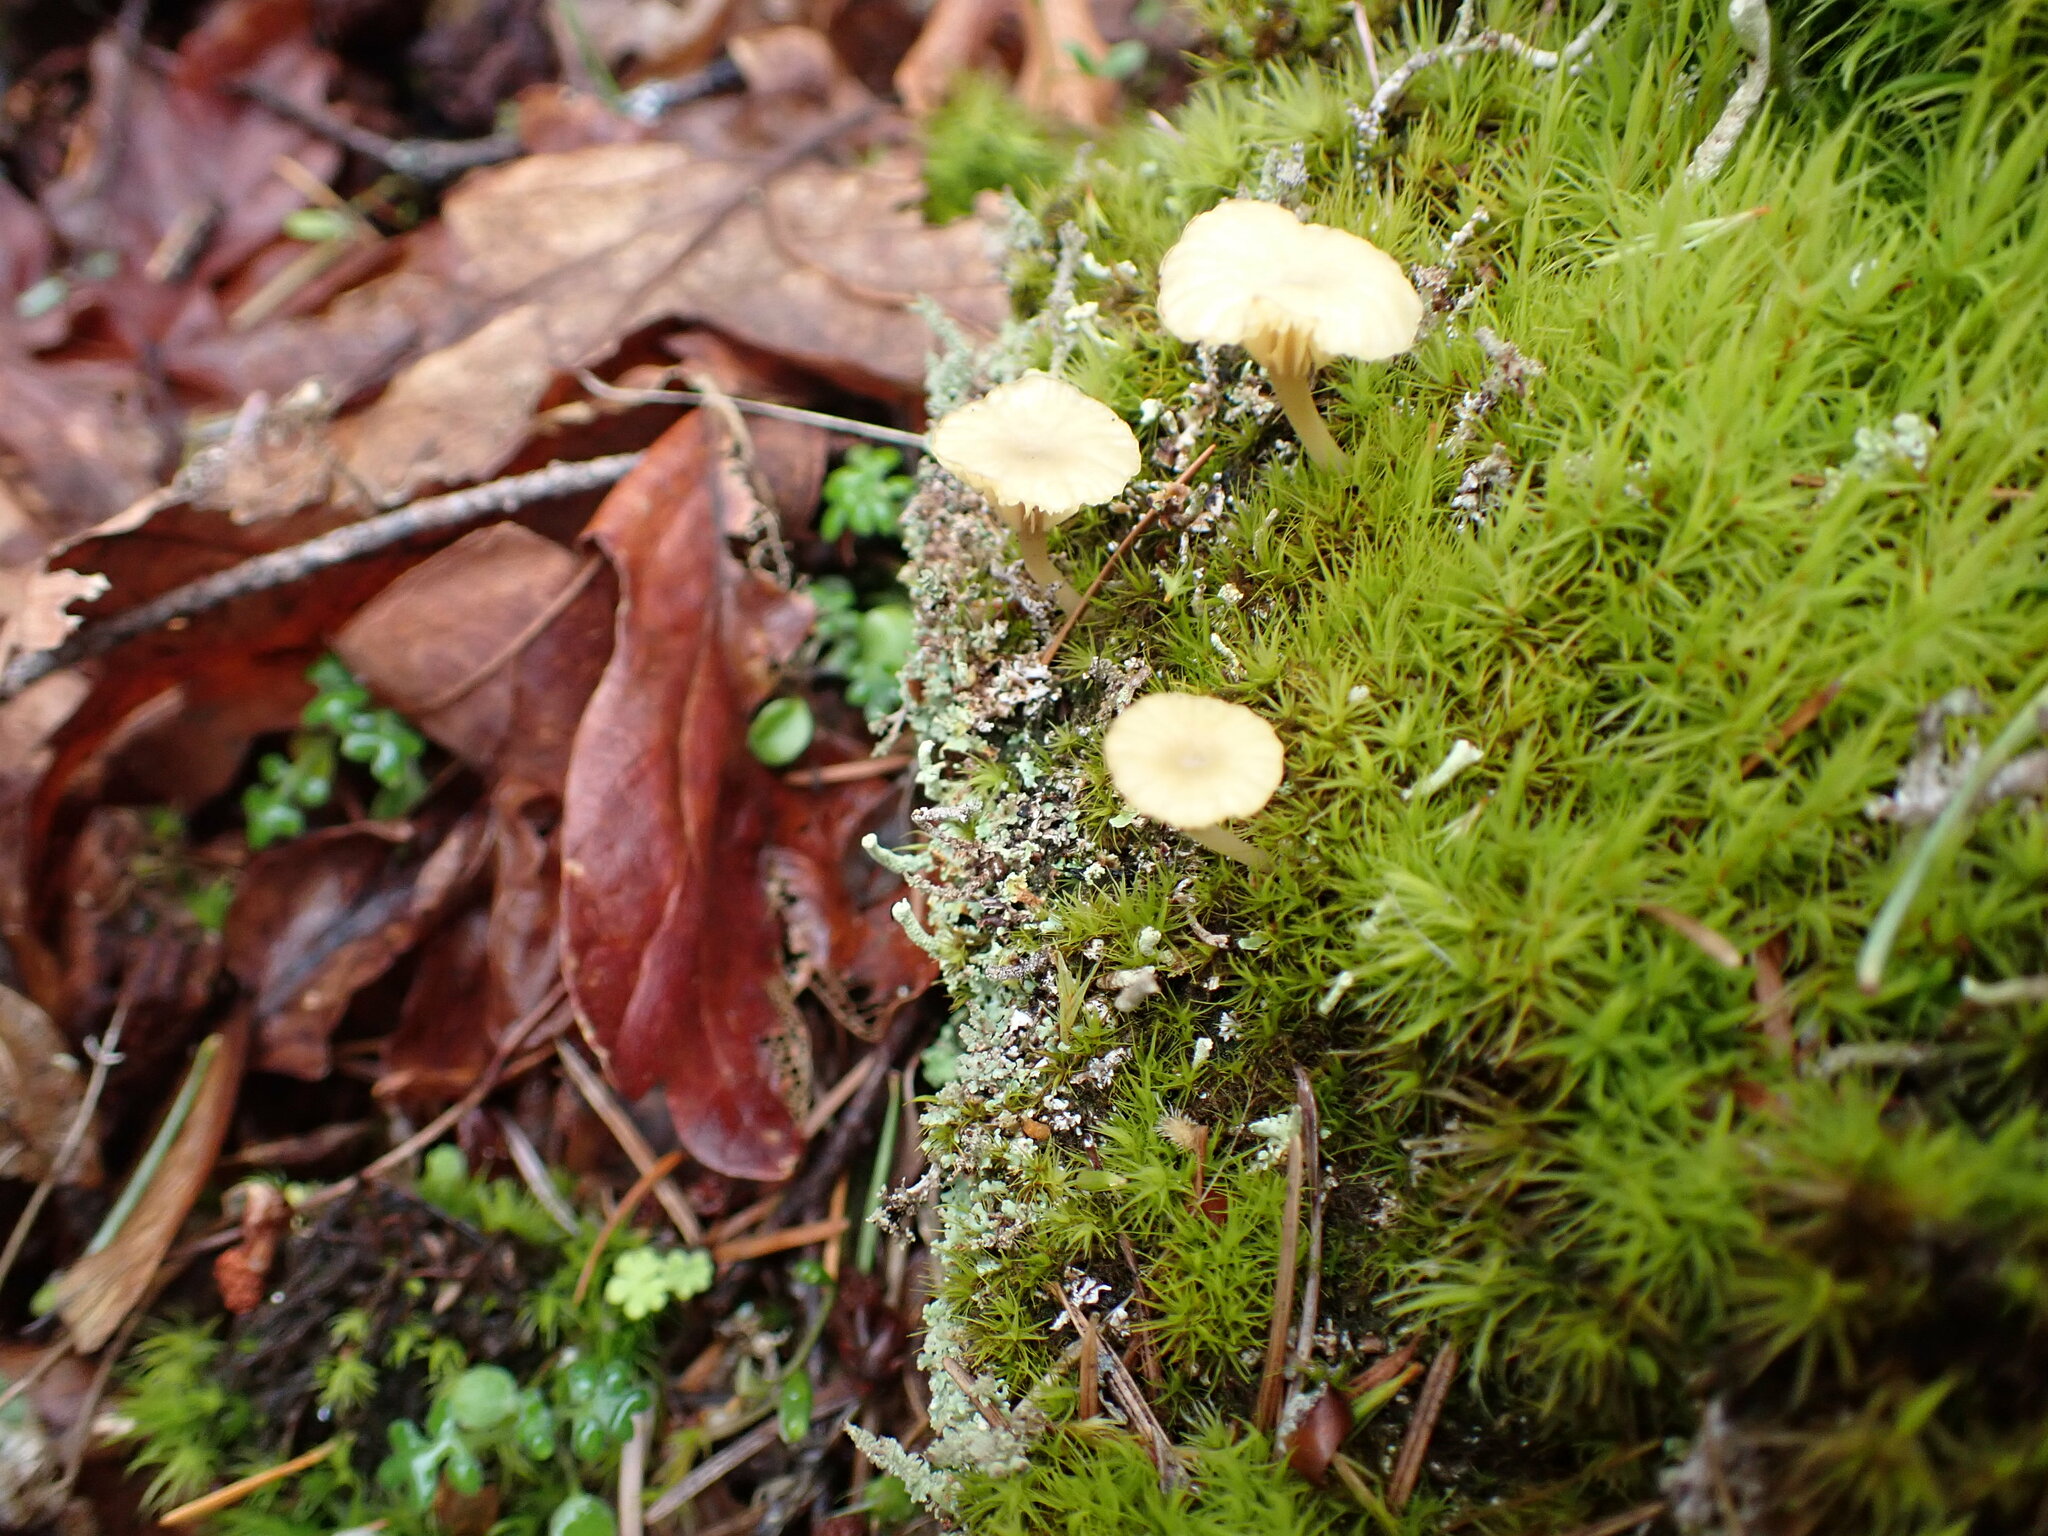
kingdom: Fungi
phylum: Basidiomycota
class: Agaricomycetes
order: Agaricales
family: Hygrophoraceae
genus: Lichenomphalia
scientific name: Lichenomphalia
